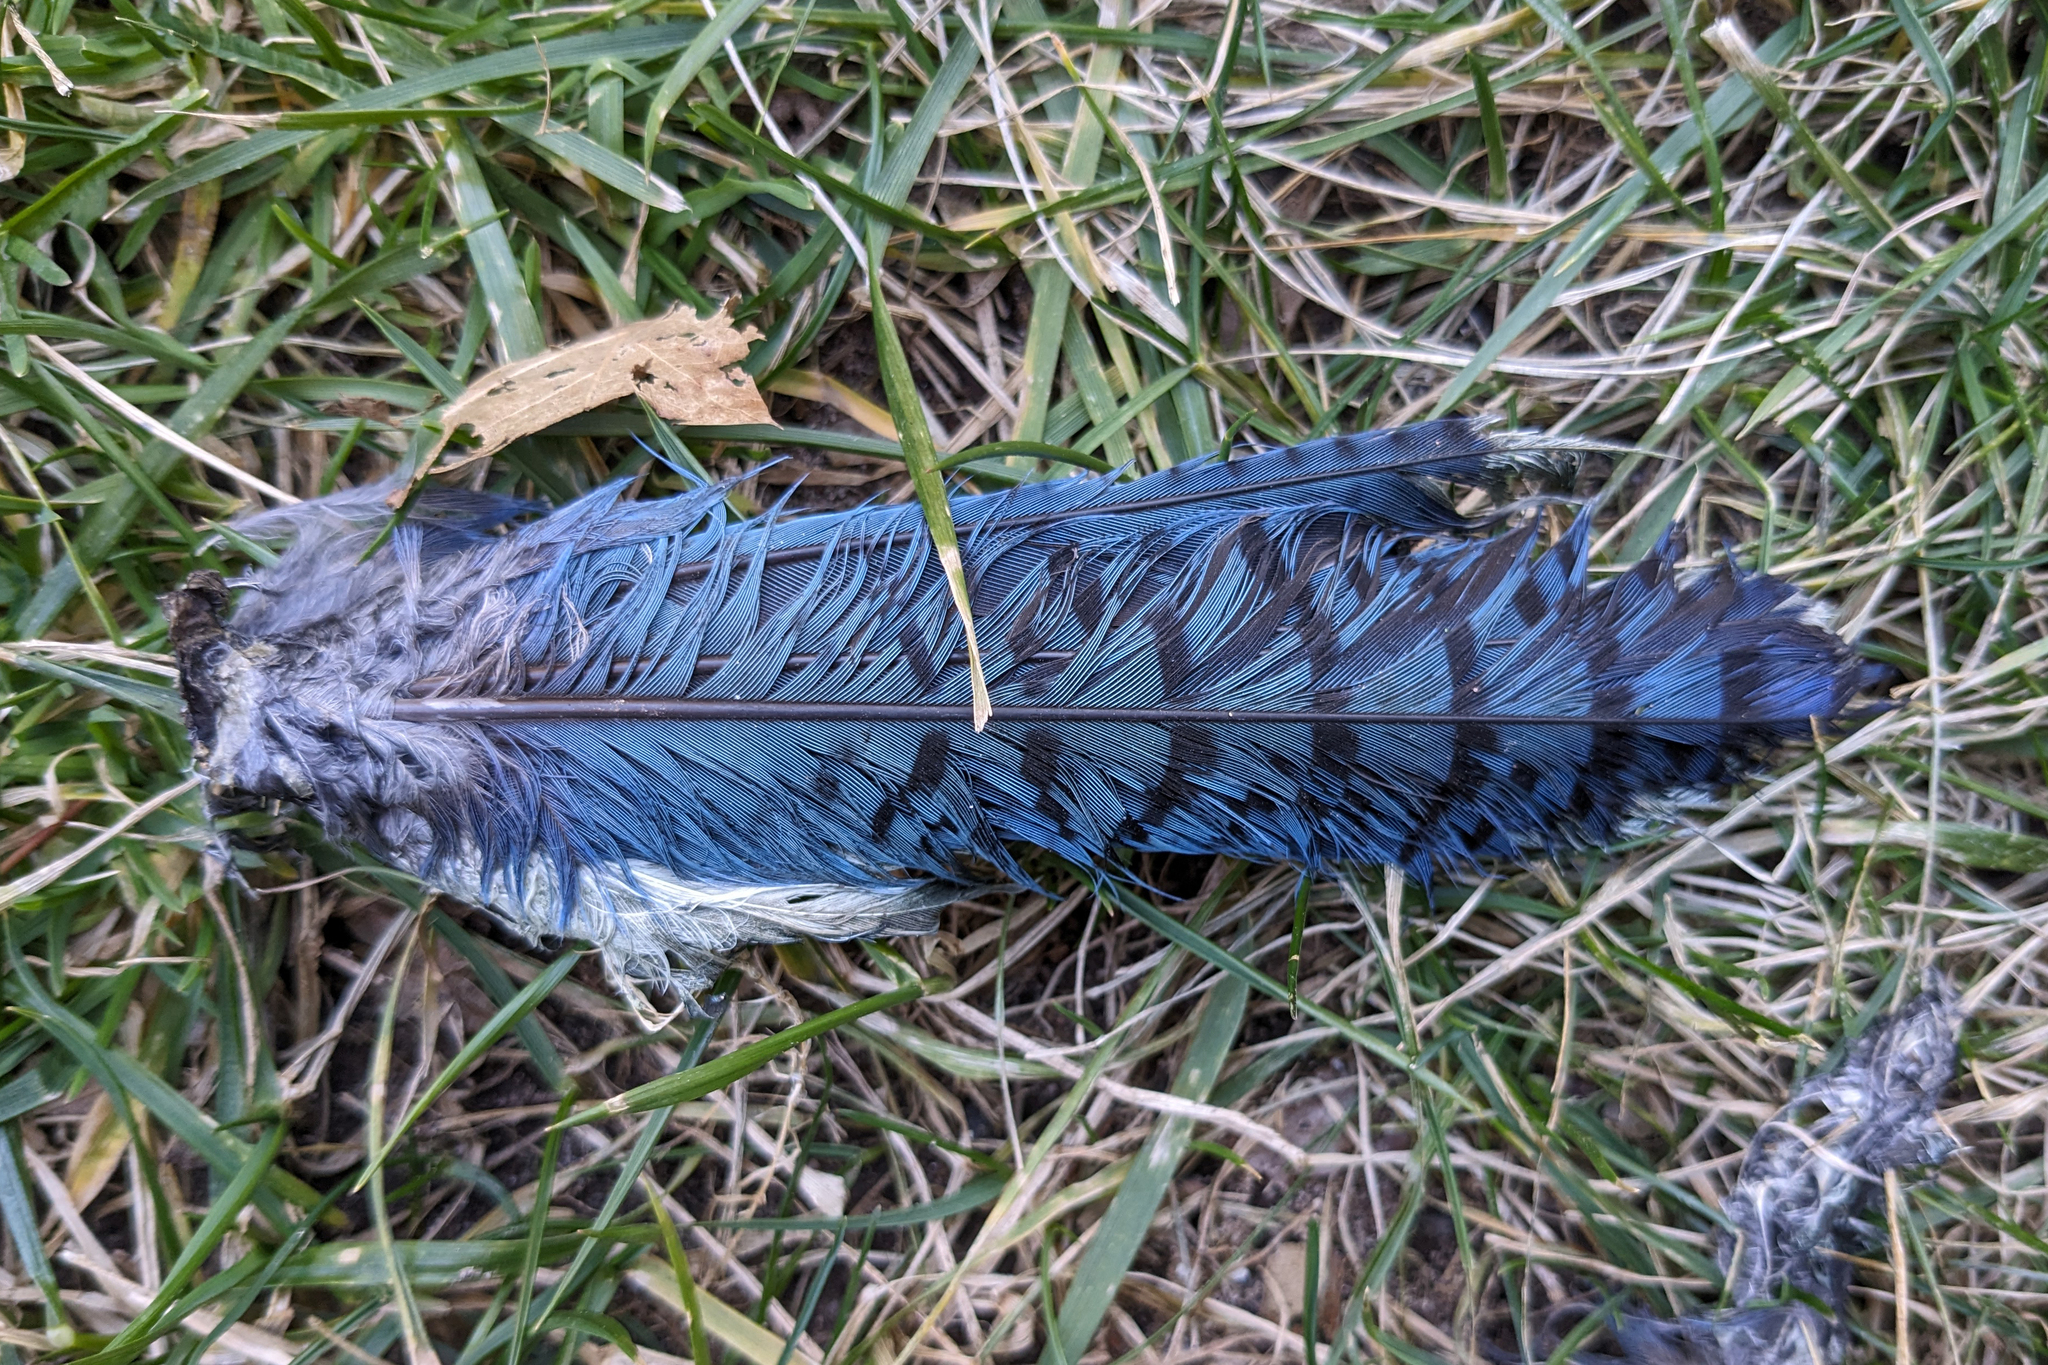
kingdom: Animalia
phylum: Chordata
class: Aves
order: Passeriformes
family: Corvidae
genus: Cyanocitta
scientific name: Cyanocitta cristata
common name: Blue jay
